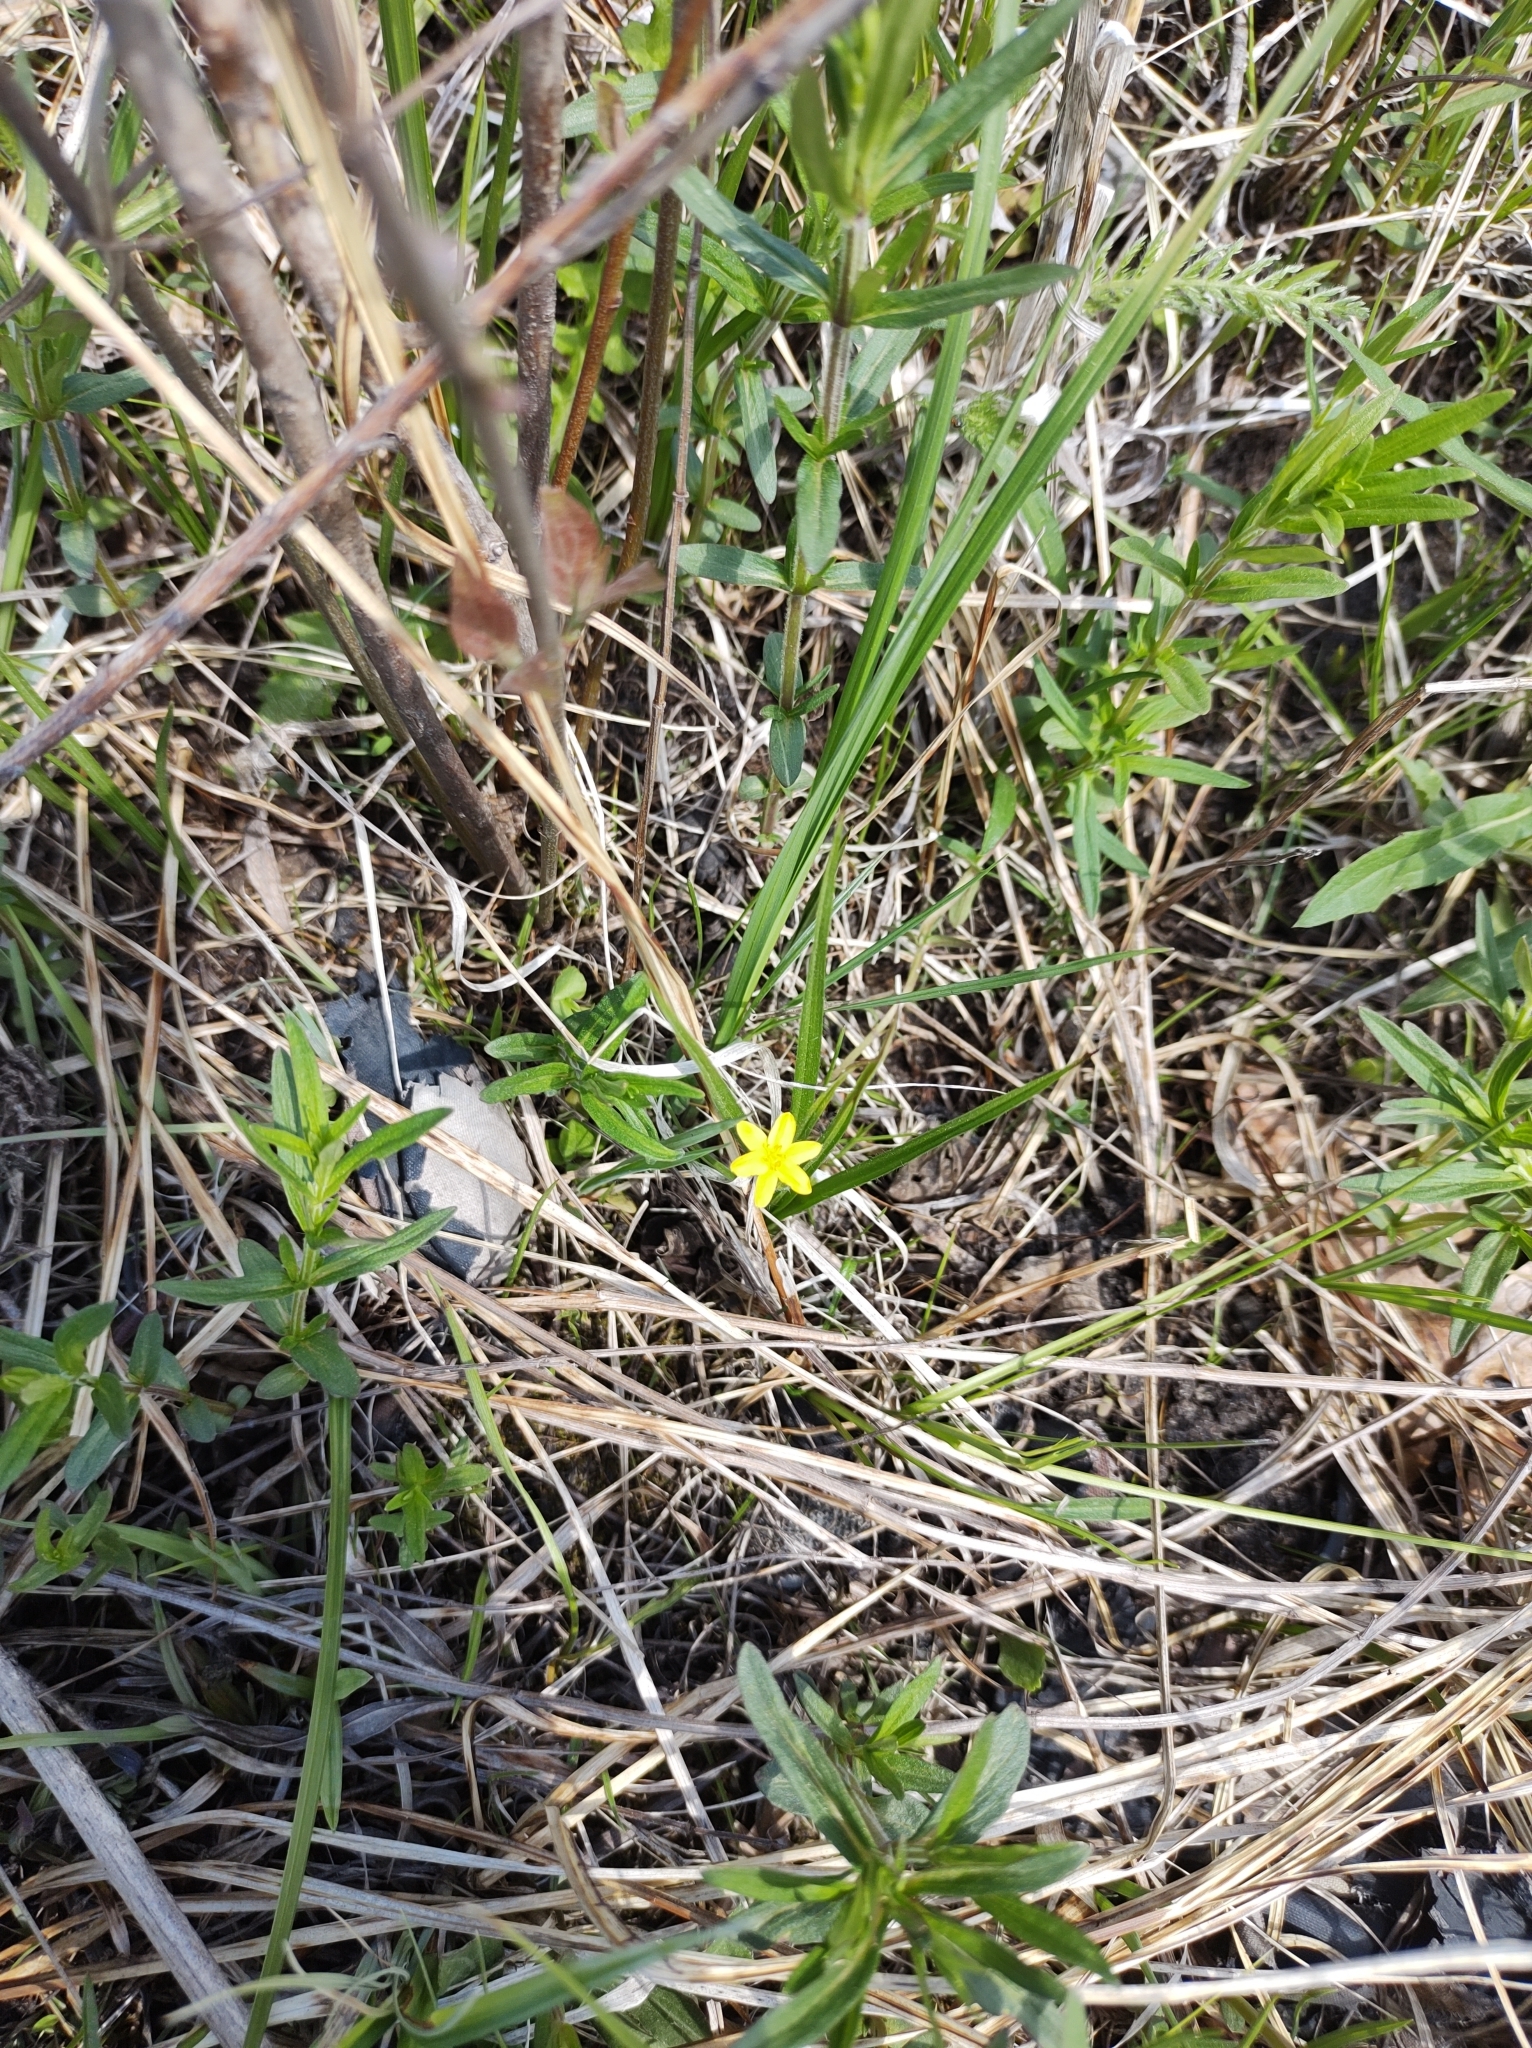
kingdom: Plantae
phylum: Tracheophyta
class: Liliopsida
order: Asparagales
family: Hypoxidaceae
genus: Hypoxis
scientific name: Hypoxis hirsuta
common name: Common goldstar
